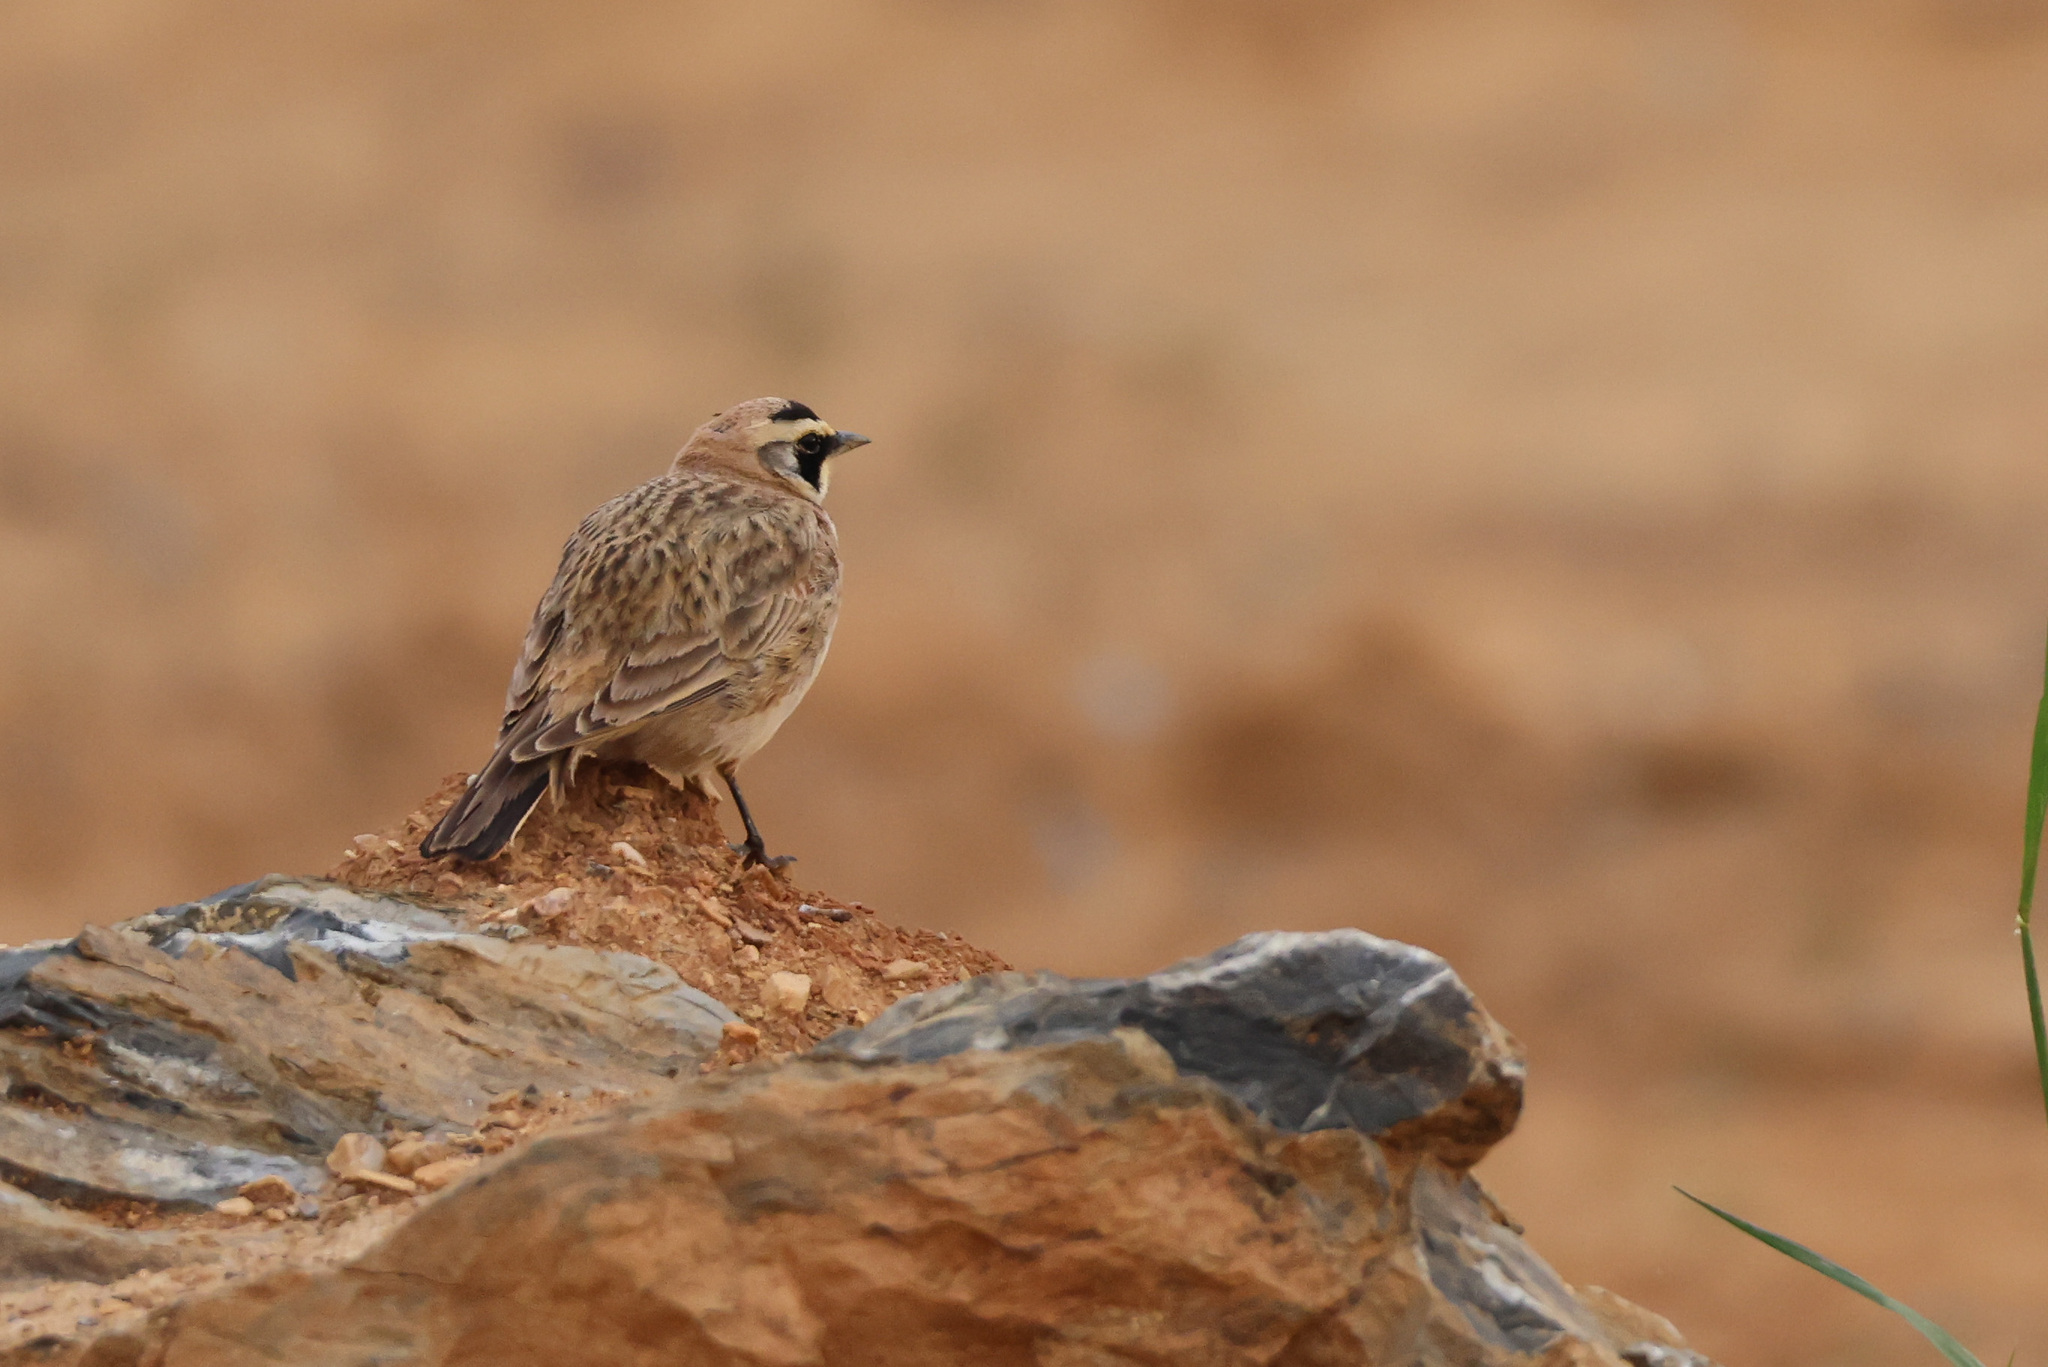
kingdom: Animalia
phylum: Chordata
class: Aves
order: Passeriformes
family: Alaudidae
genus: Eremophila
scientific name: Eremophila alpestris
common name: Horned lark
